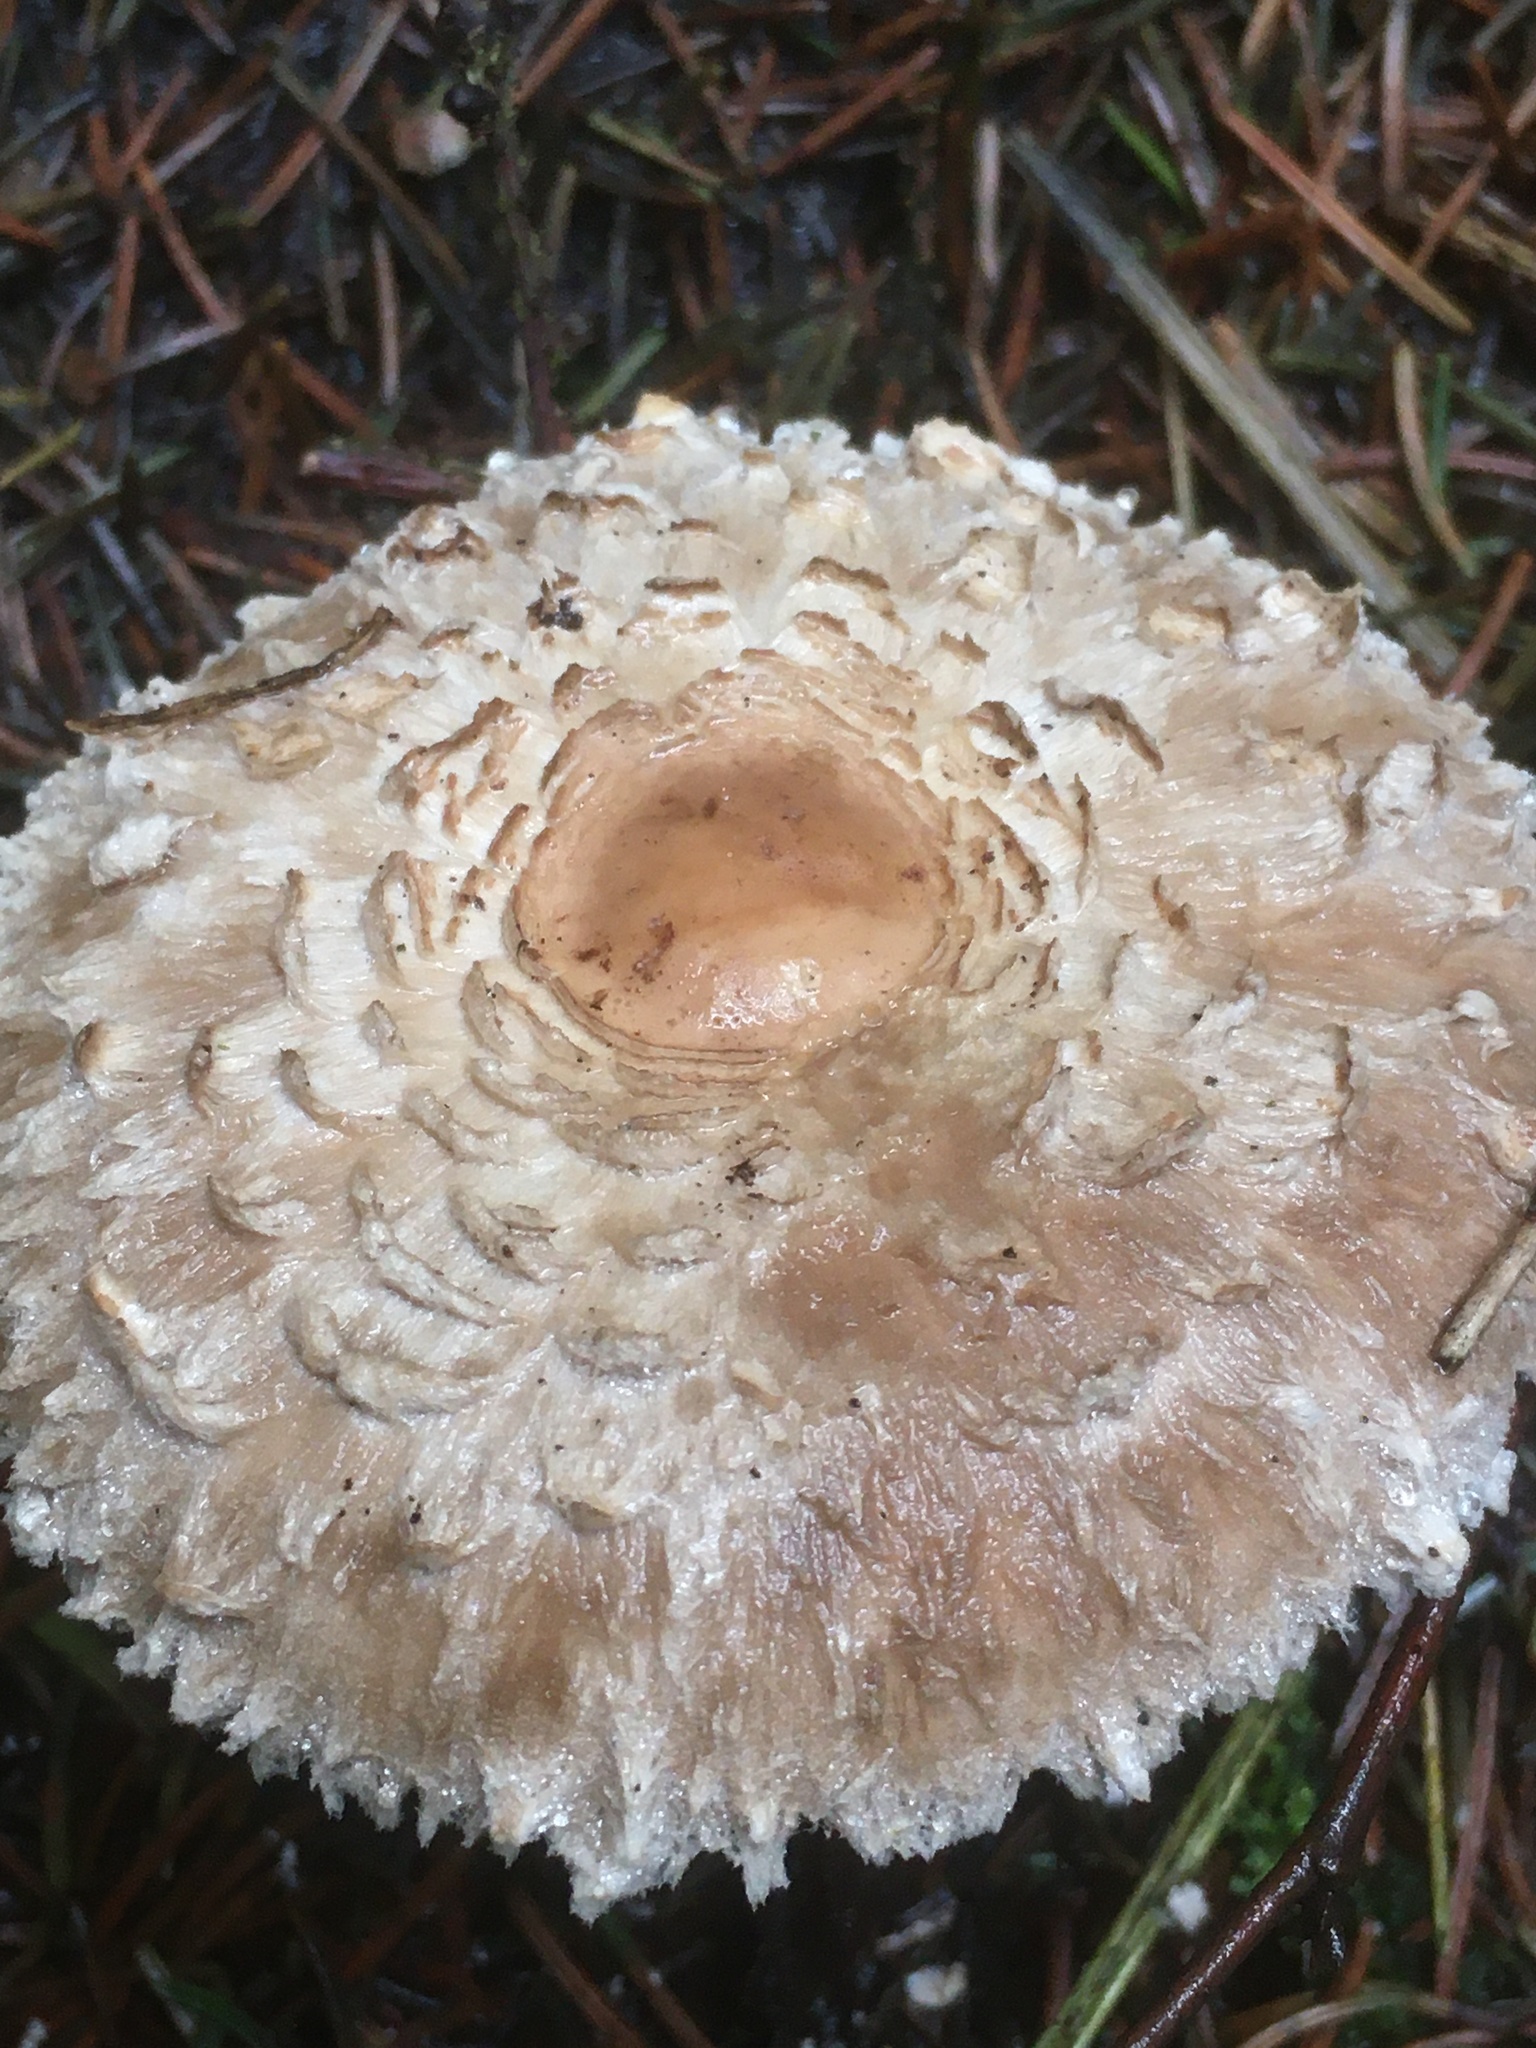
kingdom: Fungi
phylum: Basidiomycota
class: Agaricomycetes
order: Agaricales
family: Agaricaceae
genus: Chlorophyllum
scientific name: Chlorophyllum olivieri
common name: Conifer parasol
